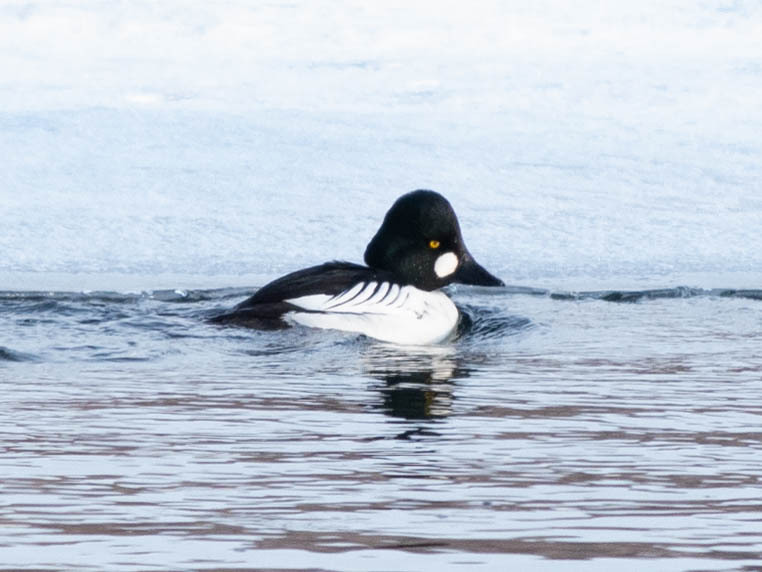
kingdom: Animalia
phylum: Chordata
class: Aves
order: Anseriformes
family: Anatidae
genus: Bucephala
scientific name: Bucephala clangula
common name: Common goldeneye
